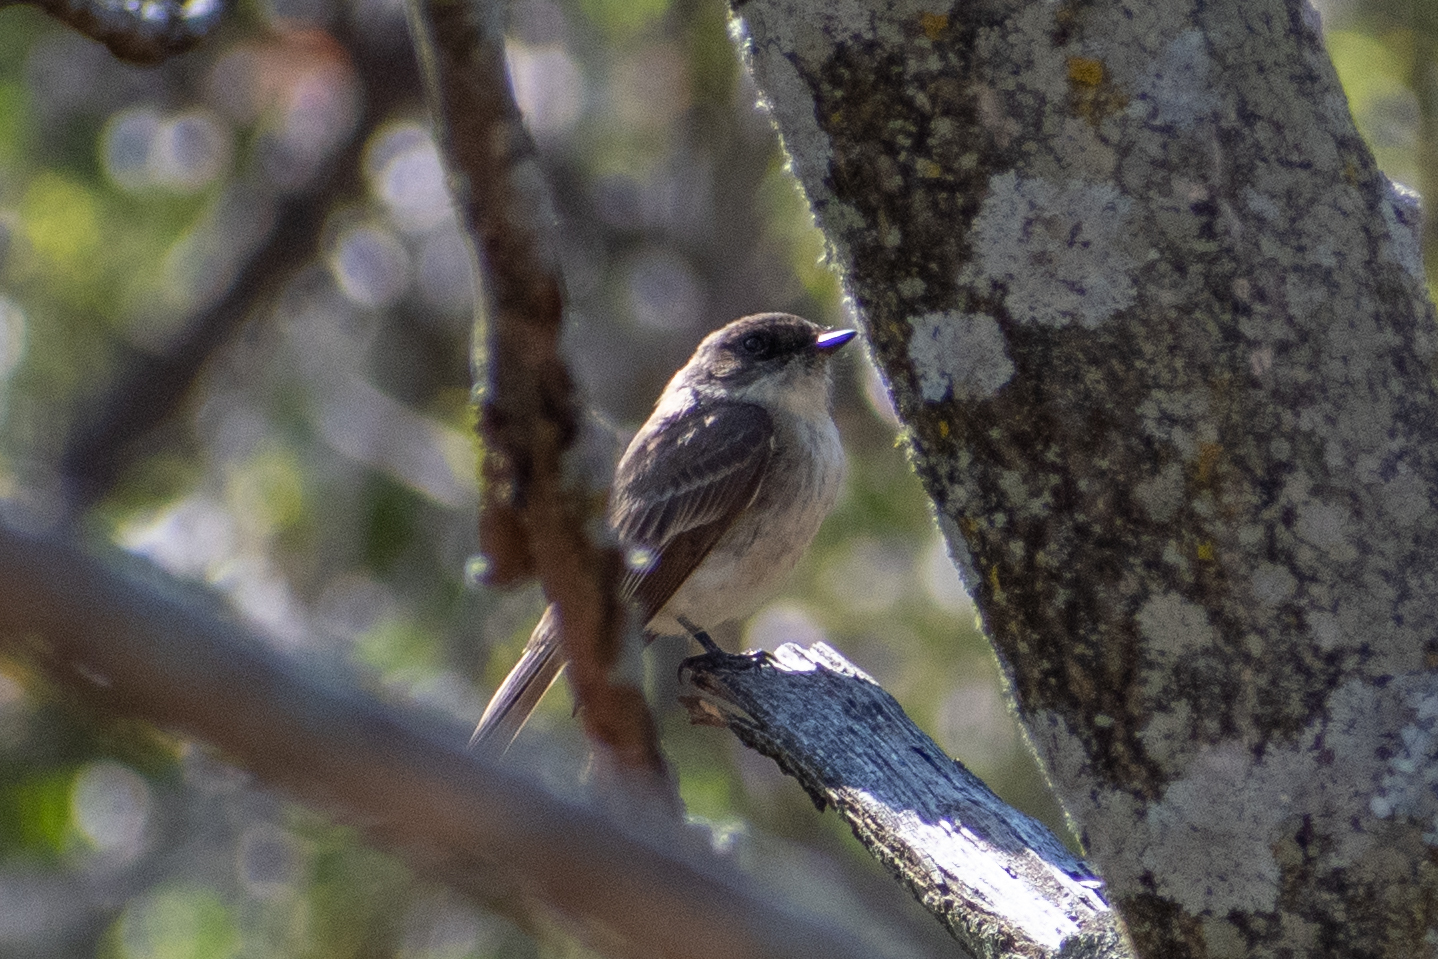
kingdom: Animalia
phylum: Chordata
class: Aves
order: Passeriformes
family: Tyrannidae
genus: Sayornis
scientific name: Sayornis phoebe
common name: Eastern phoebe
